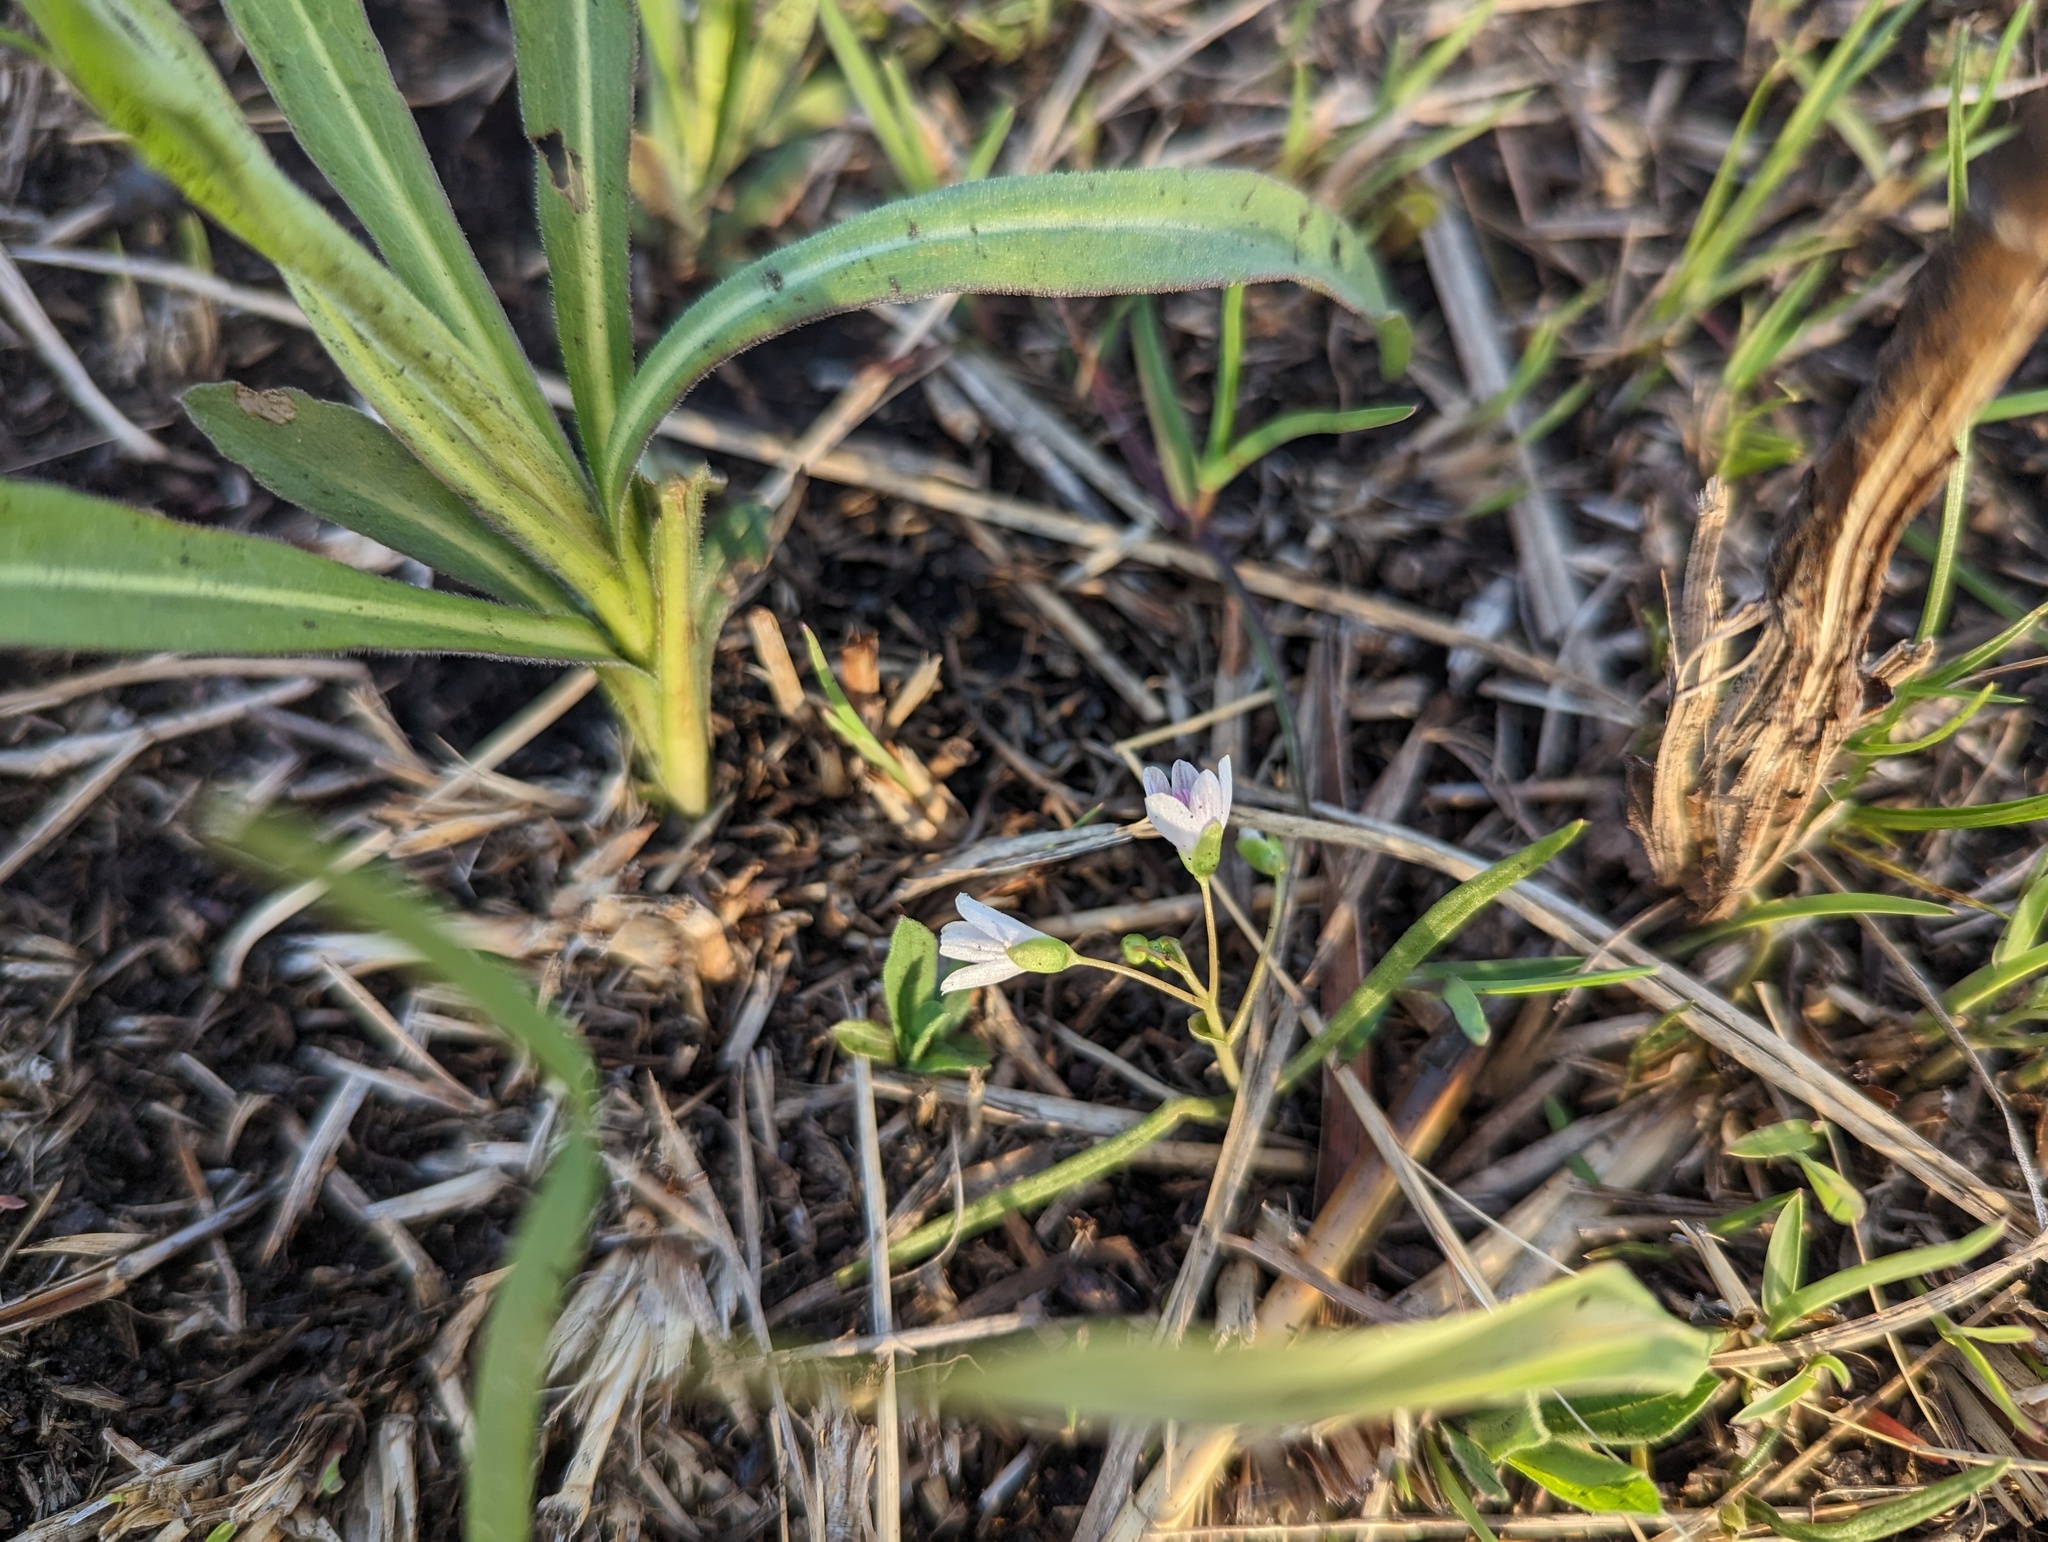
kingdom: Plantae
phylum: Tracheophyta
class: Magnoliopsida
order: Caryophyllales
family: Montiaceae
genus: Claytonia
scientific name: Claytonia virginica
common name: Virginia springbeauty
